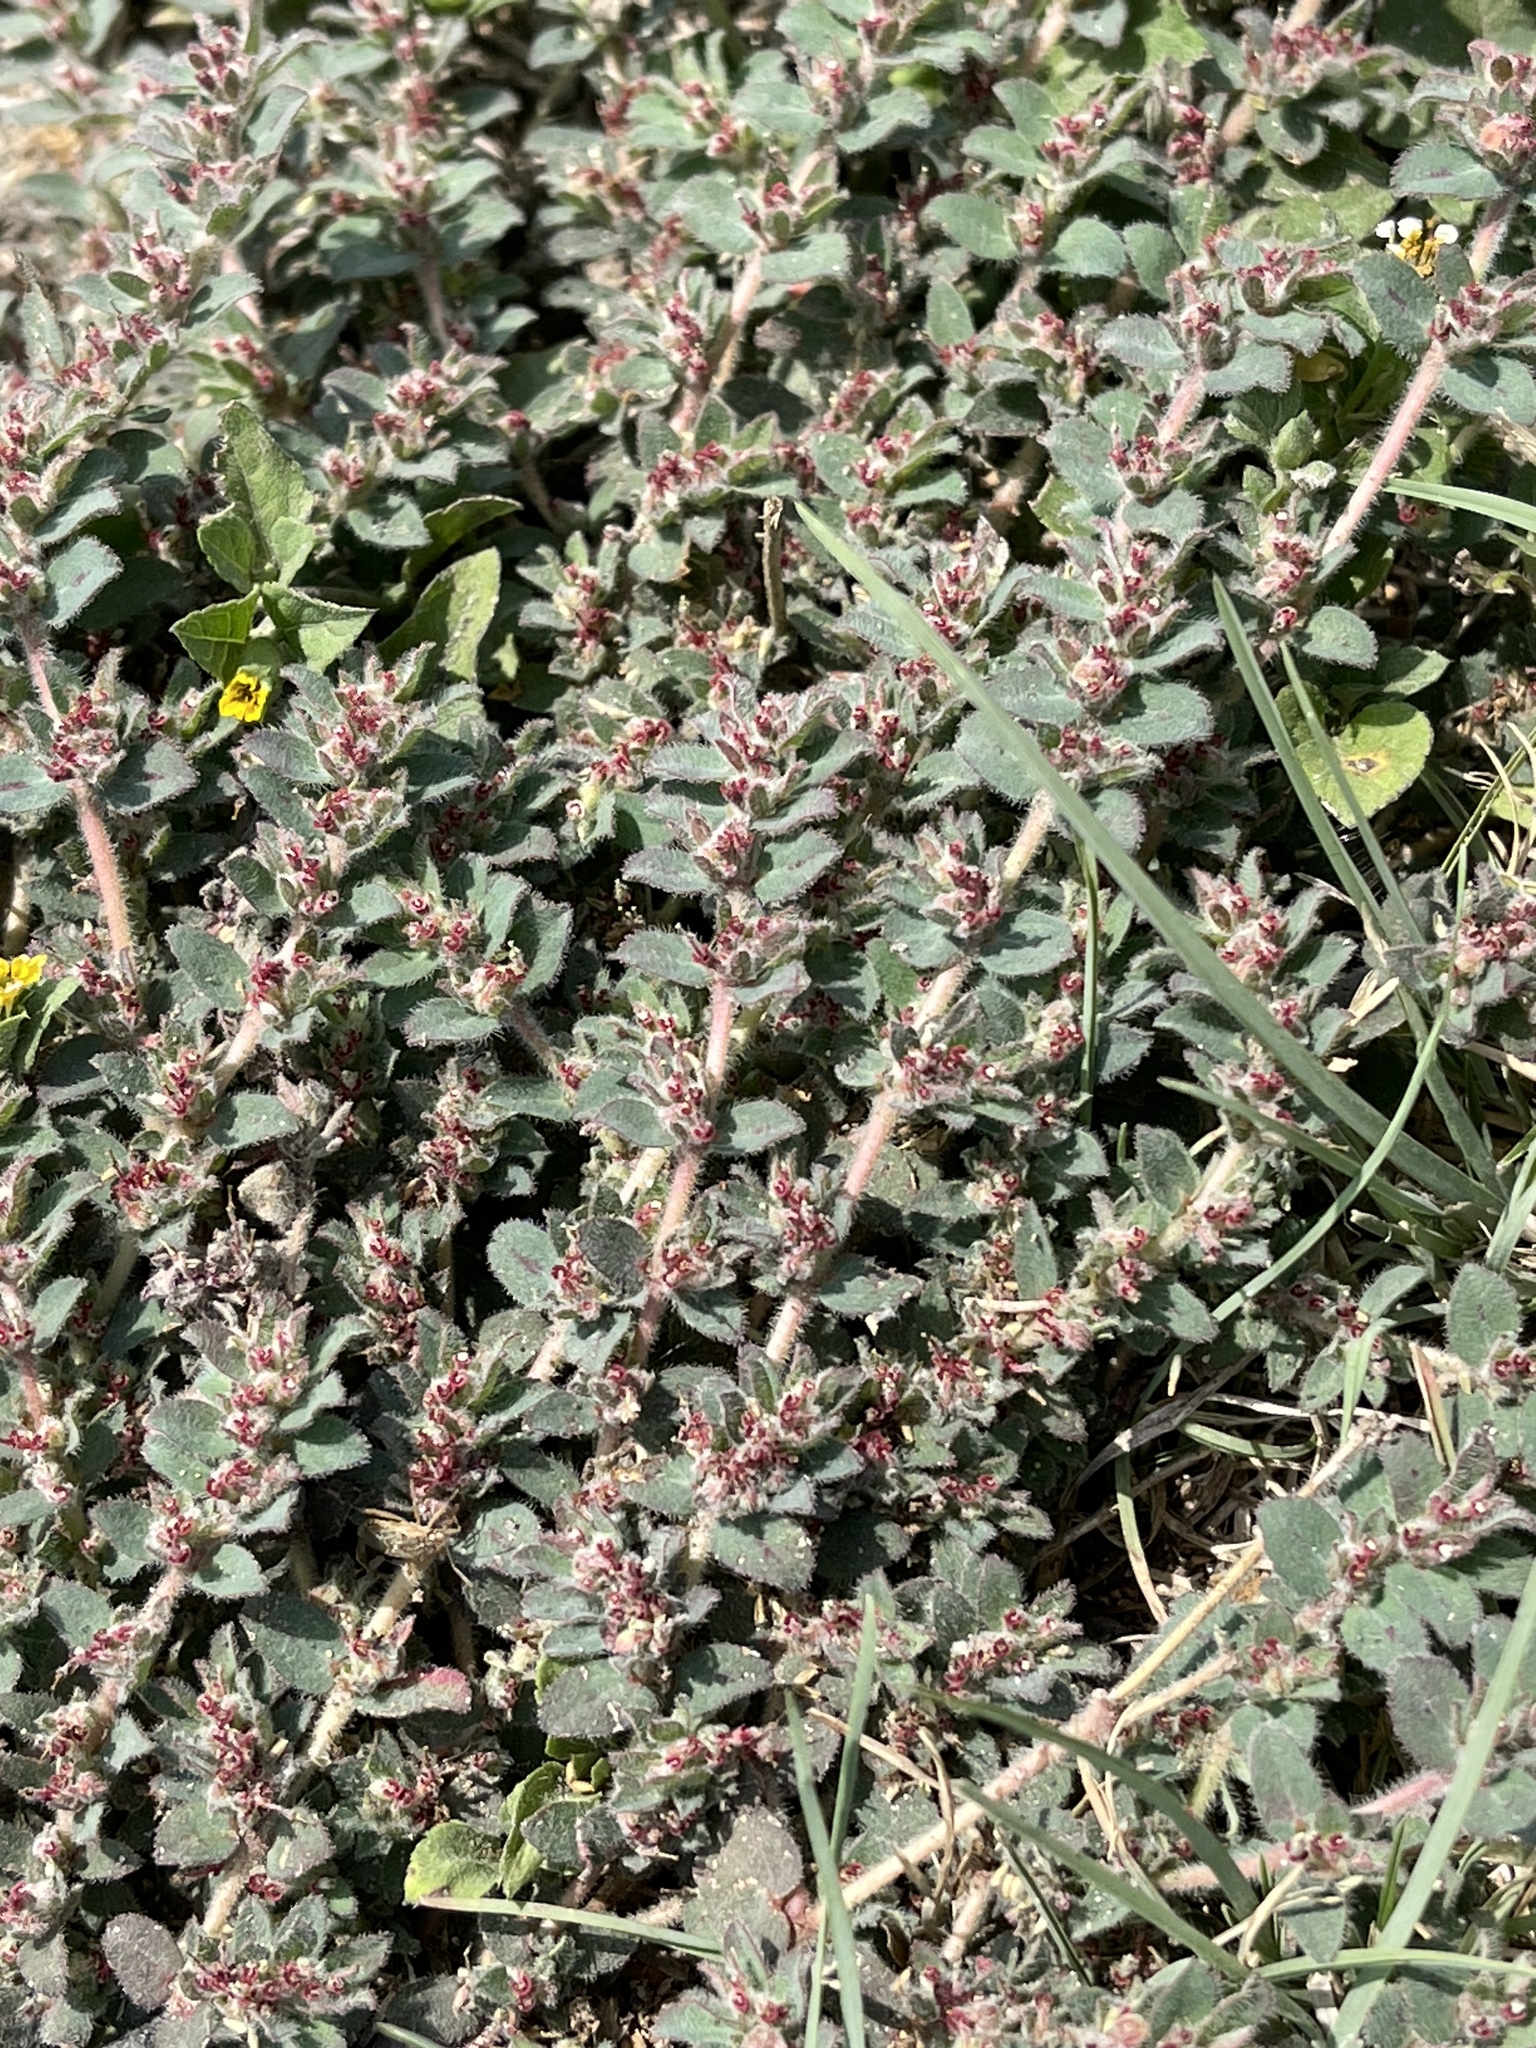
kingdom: Plantae
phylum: Tracheophyta
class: Magnoliopsida
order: Malpighiales
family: Euphorbiaceae
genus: Euphorbia
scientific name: Euphorbia velleriflora
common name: Caliche sandmat
